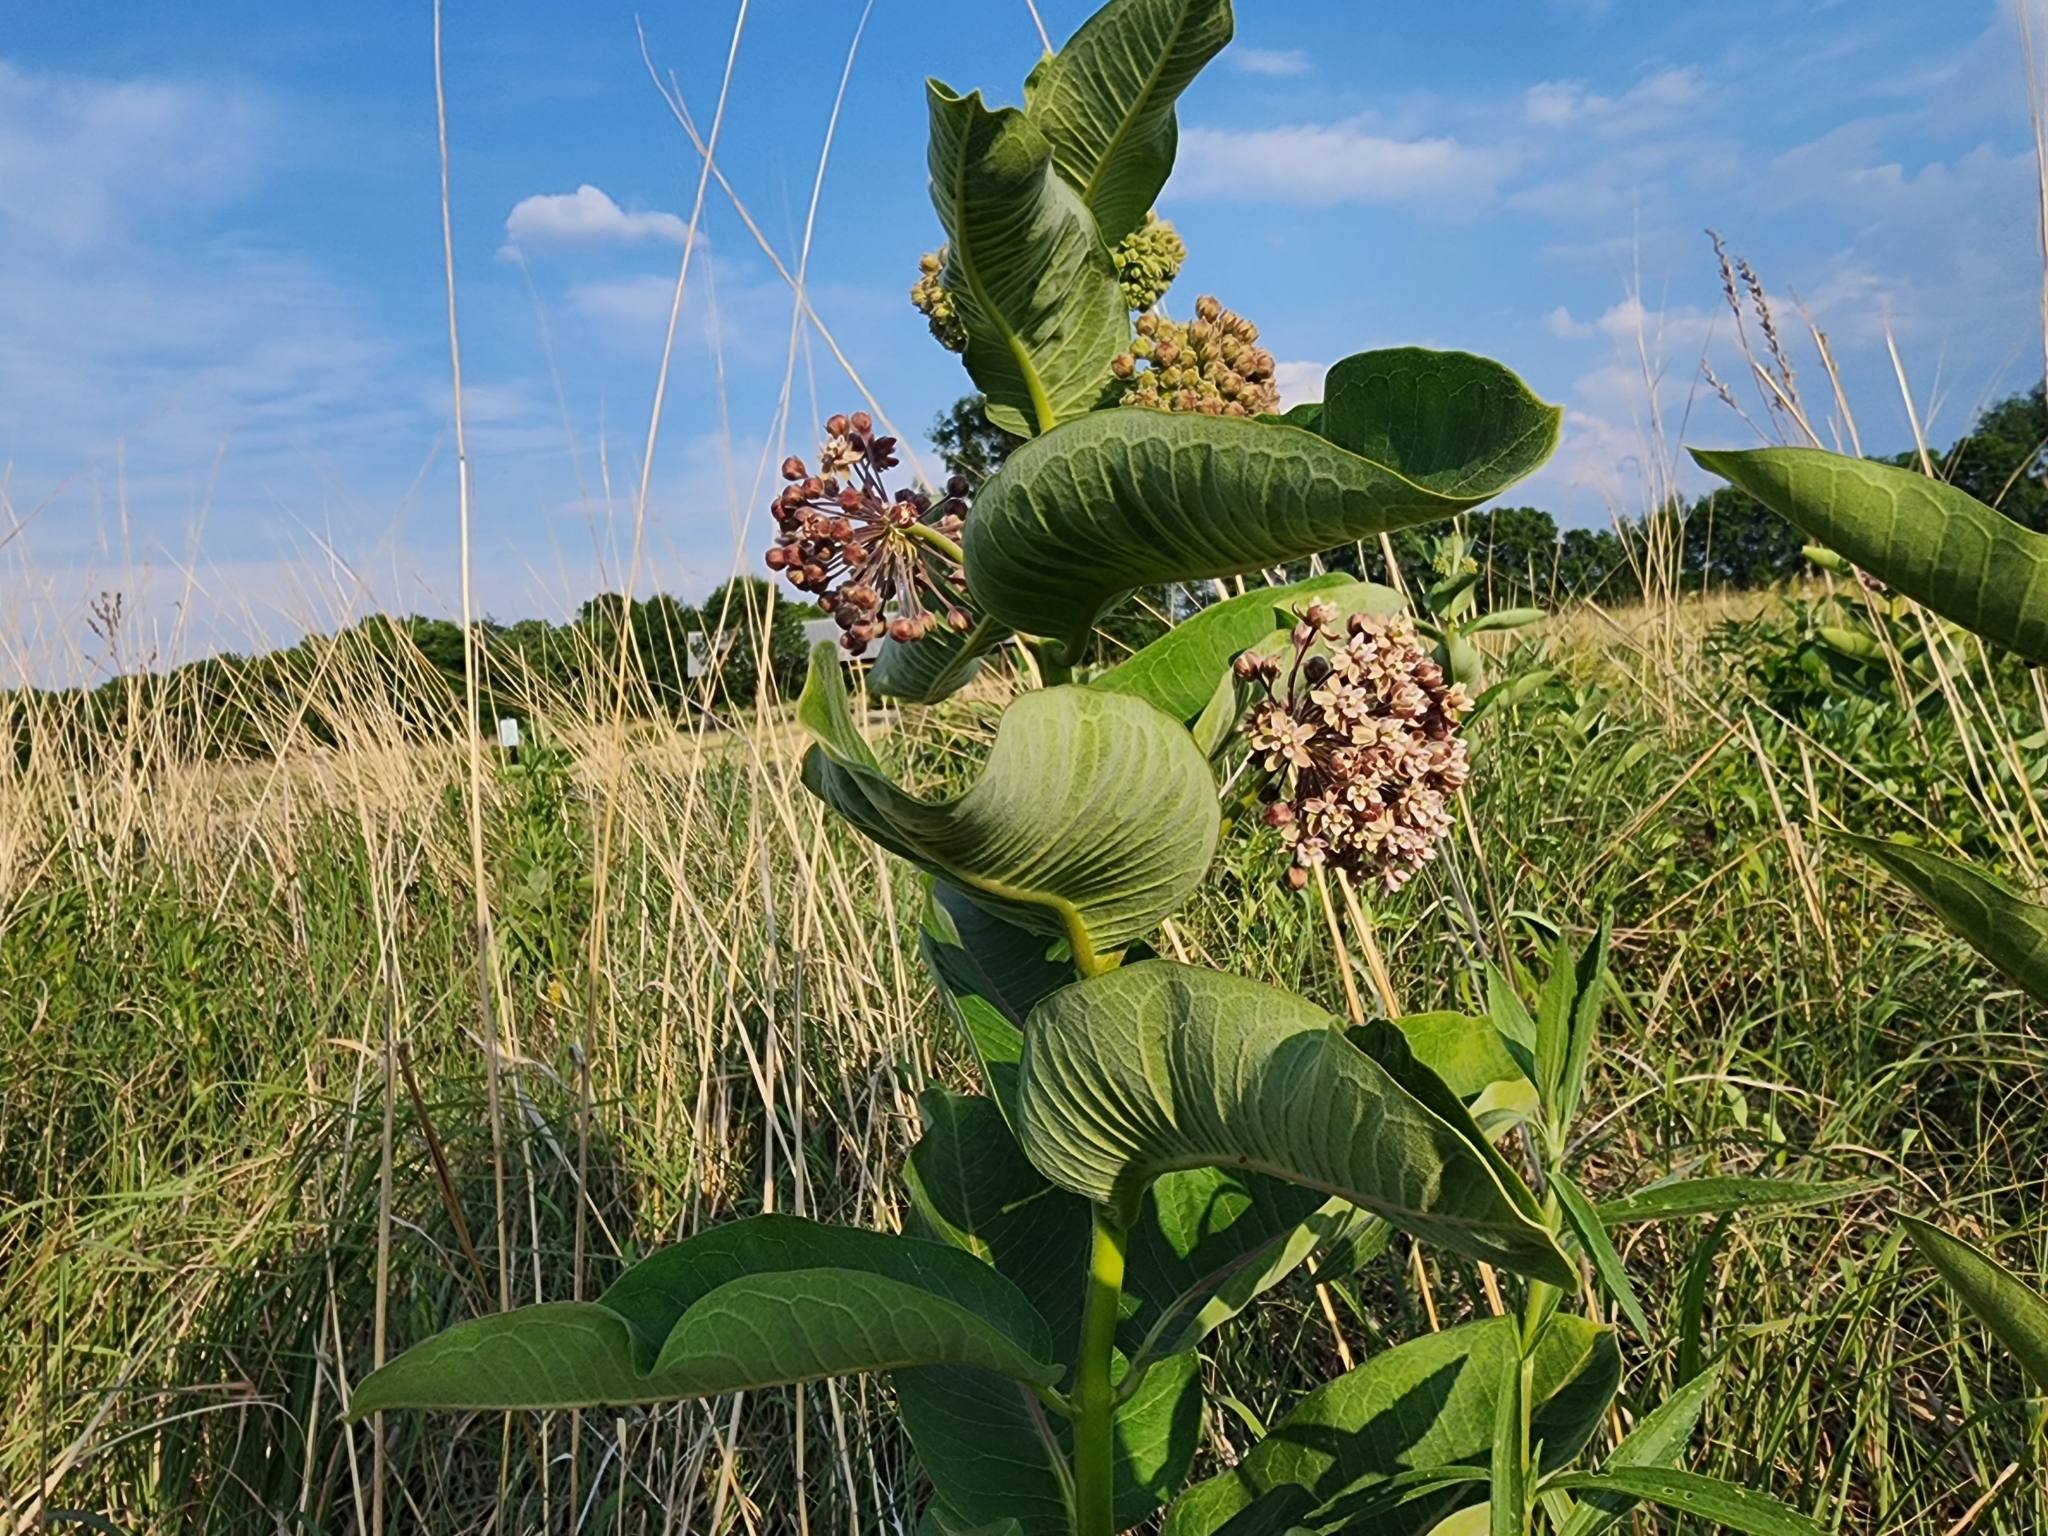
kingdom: Plantae
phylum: Tracheophyta
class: Magnoliopsida
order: Gentianales
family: Apocynaceae
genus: Asclepias
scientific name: Asclepias syriaca
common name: Common milkweed
